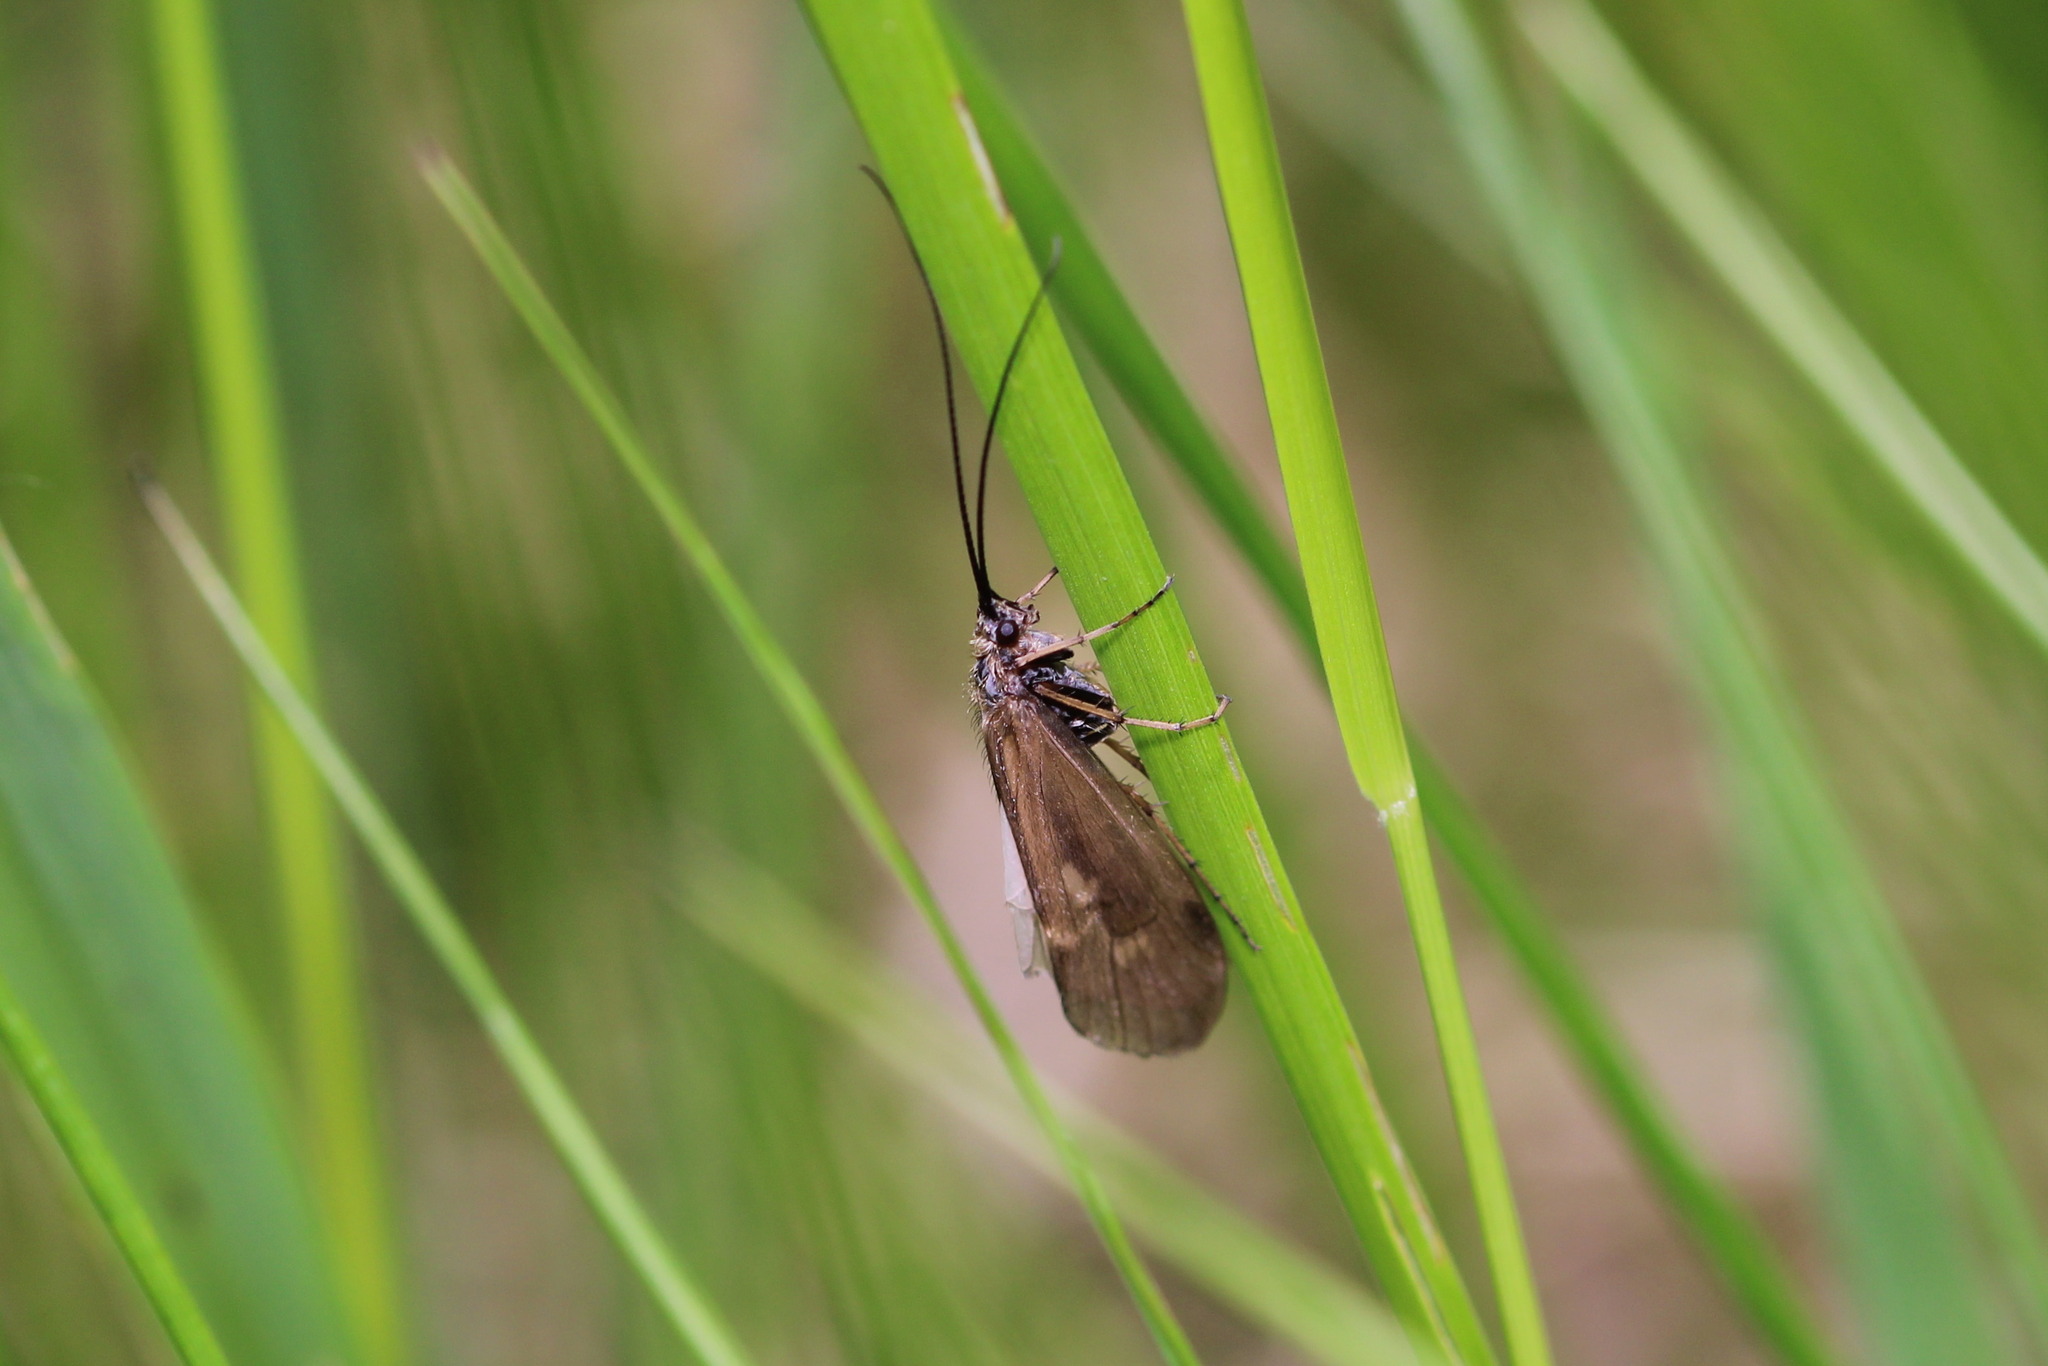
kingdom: Animalia
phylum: Arthropoda
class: Insecta
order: Trichoptera
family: Limnephilidae
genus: Rhadicoleptus
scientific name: Rhadicoleptus alpestris
